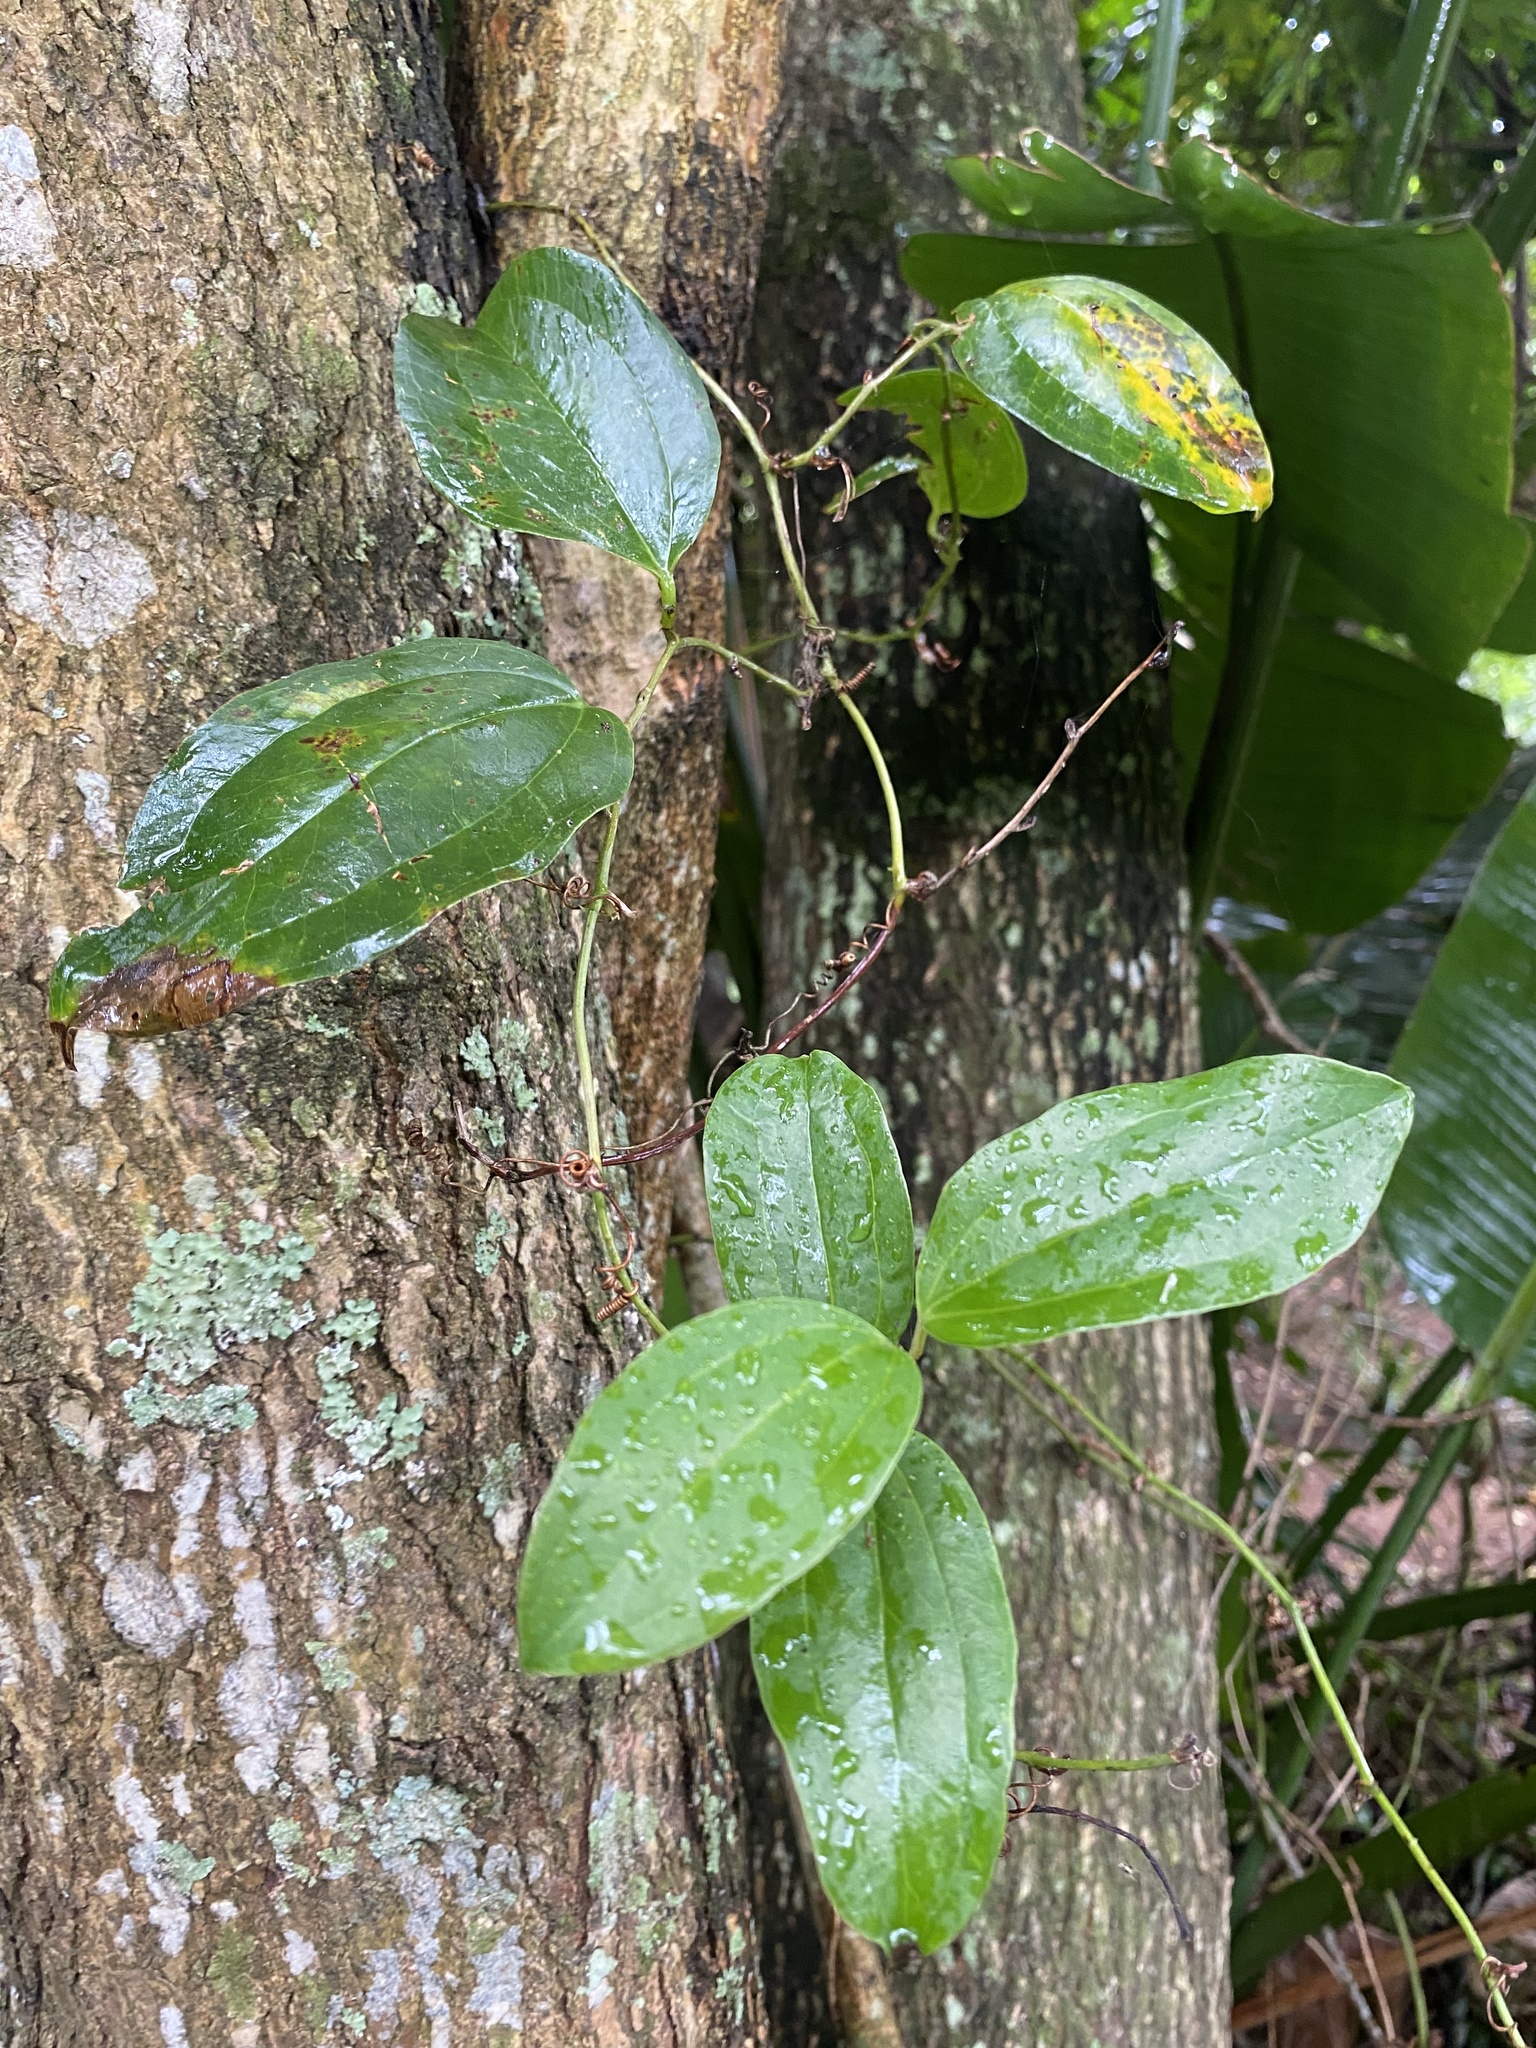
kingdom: Plantae
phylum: Tracheophyta
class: Liliopsida
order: Liliales
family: Smilacaceae
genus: Smilax
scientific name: Smilax anceps
